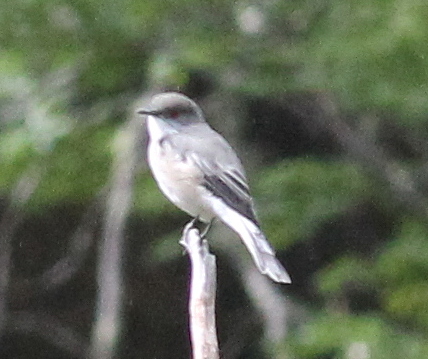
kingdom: Animalia
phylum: Chordata
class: Aves
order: Passeriformes
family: Tyrannidae
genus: Xolmis
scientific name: Xolmis pyrope
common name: Fire-eyed diucon
